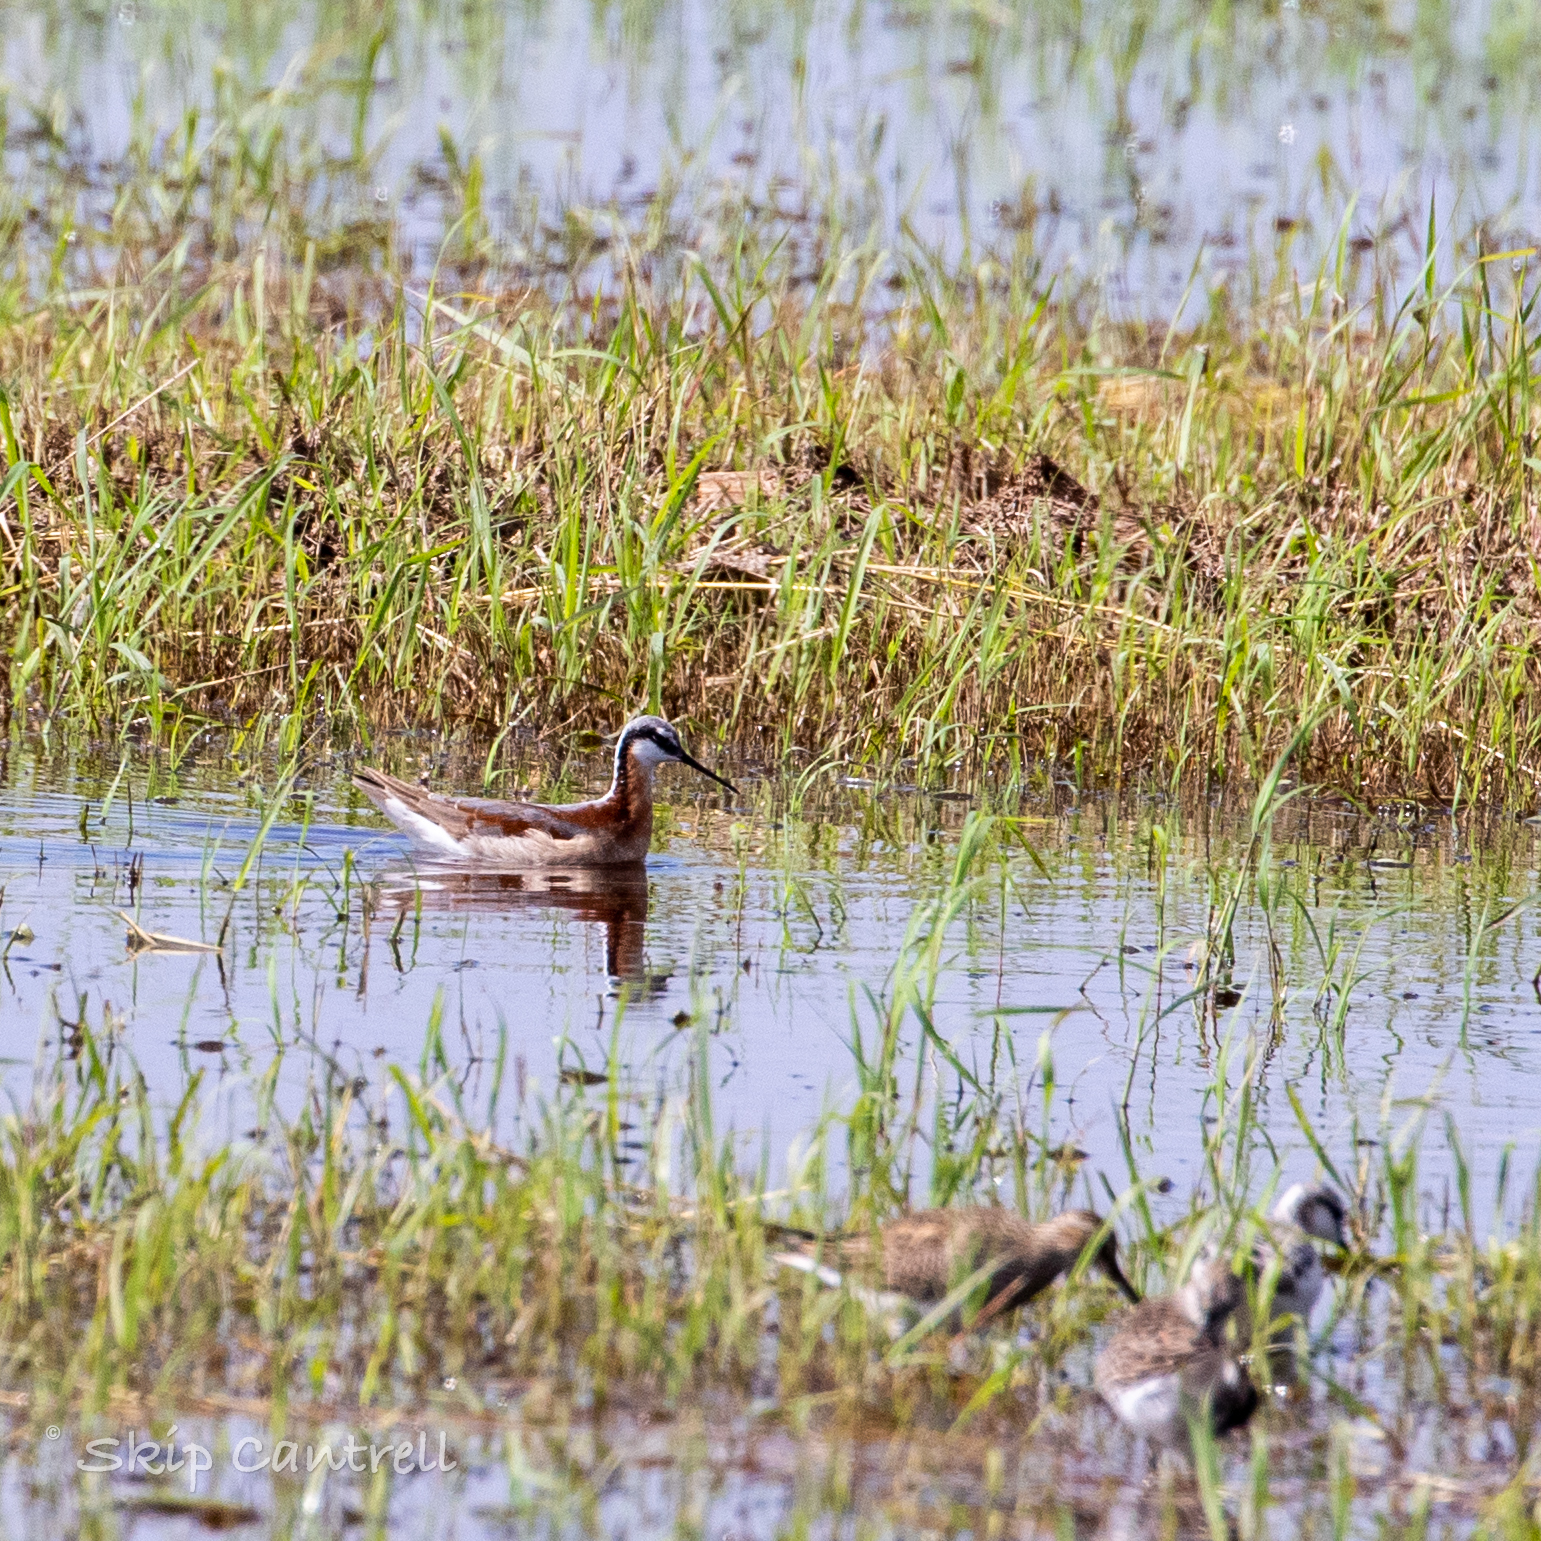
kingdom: Animalia
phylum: Chordata
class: Aves
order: Charadriiformes
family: Scolopacidae
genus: Phalaropus
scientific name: Phalaropus tricolor
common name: Wilson's phalarope
